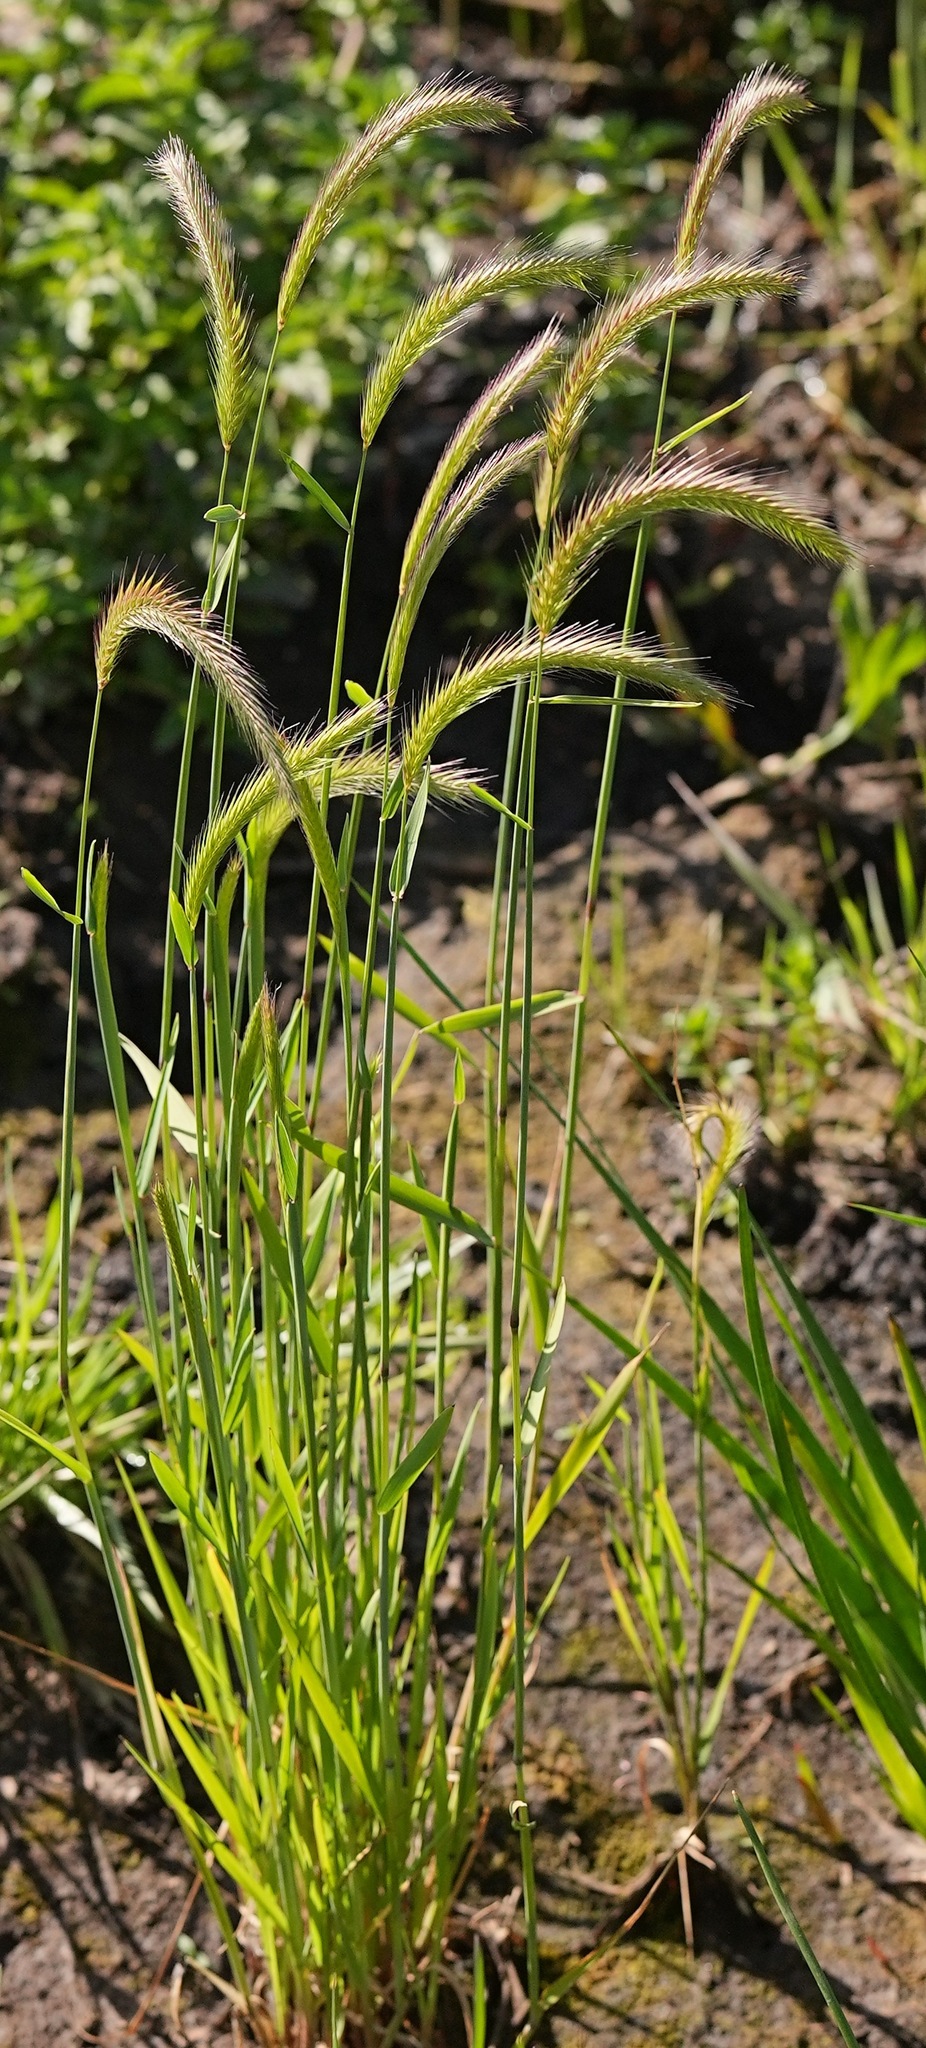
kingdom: Plantae
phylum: Tracheophyta
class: Liliopsida
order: Poales
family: Poaceae
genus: Hordeum
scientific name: Hordeum brachyantherum
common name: Meadow barley
